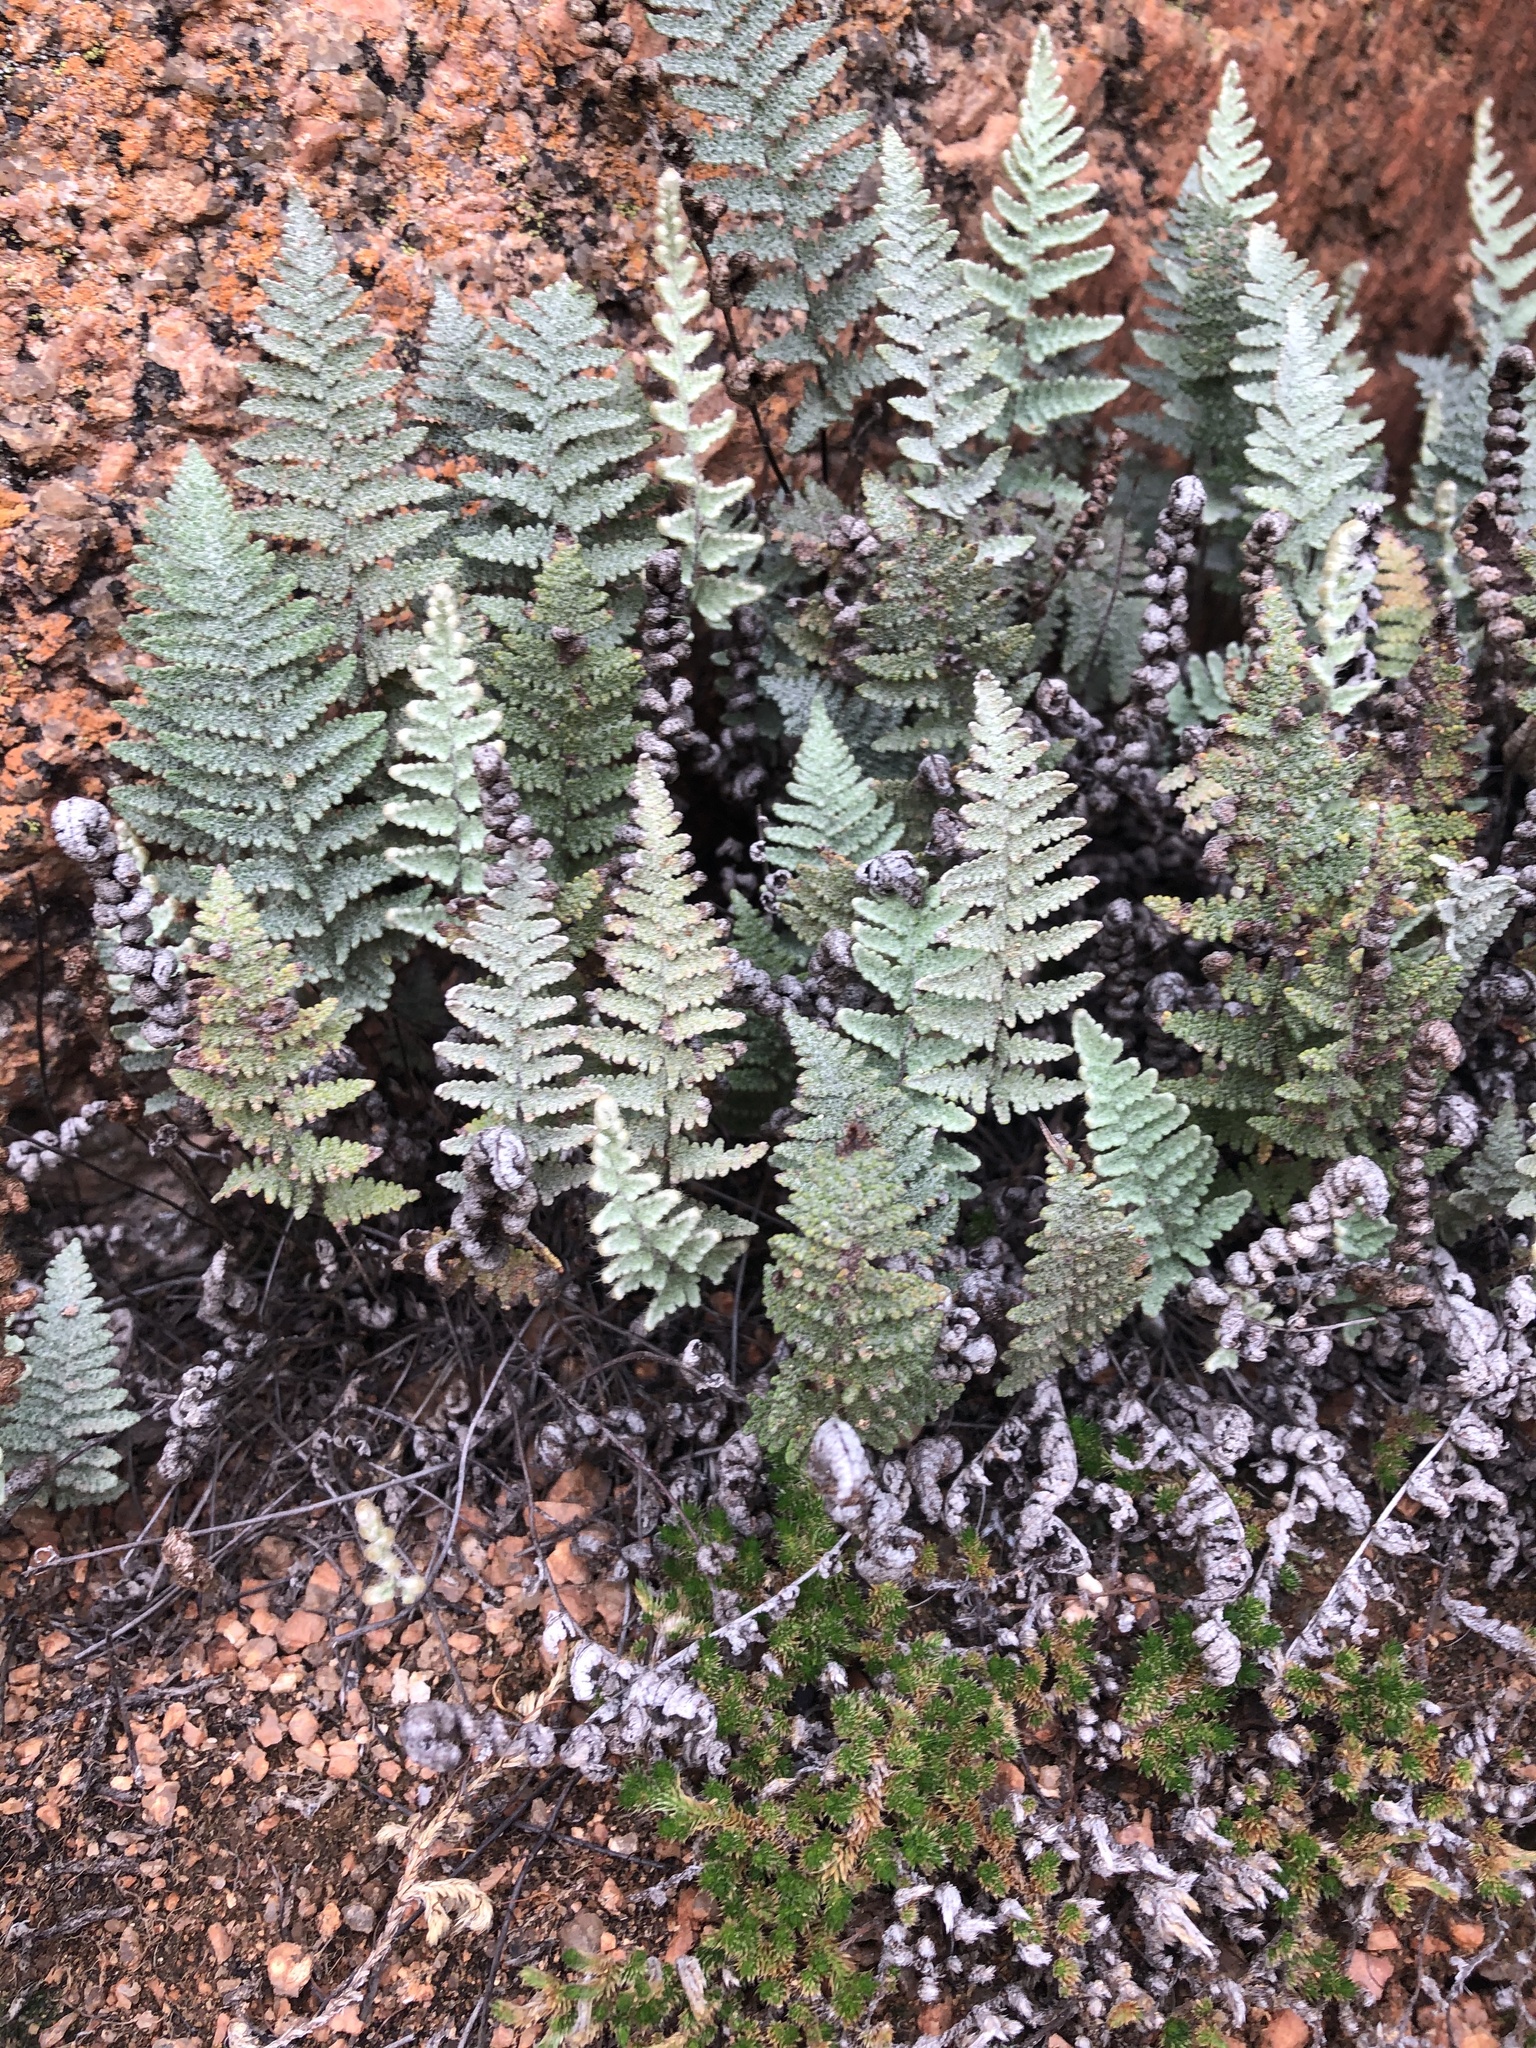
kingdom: Plantae
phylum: Tracheophyta
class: Polypodiopsida
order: Polypodiales
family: Pteridaceae
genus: Myriopteris
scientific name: Myriopteris lindheimeri
